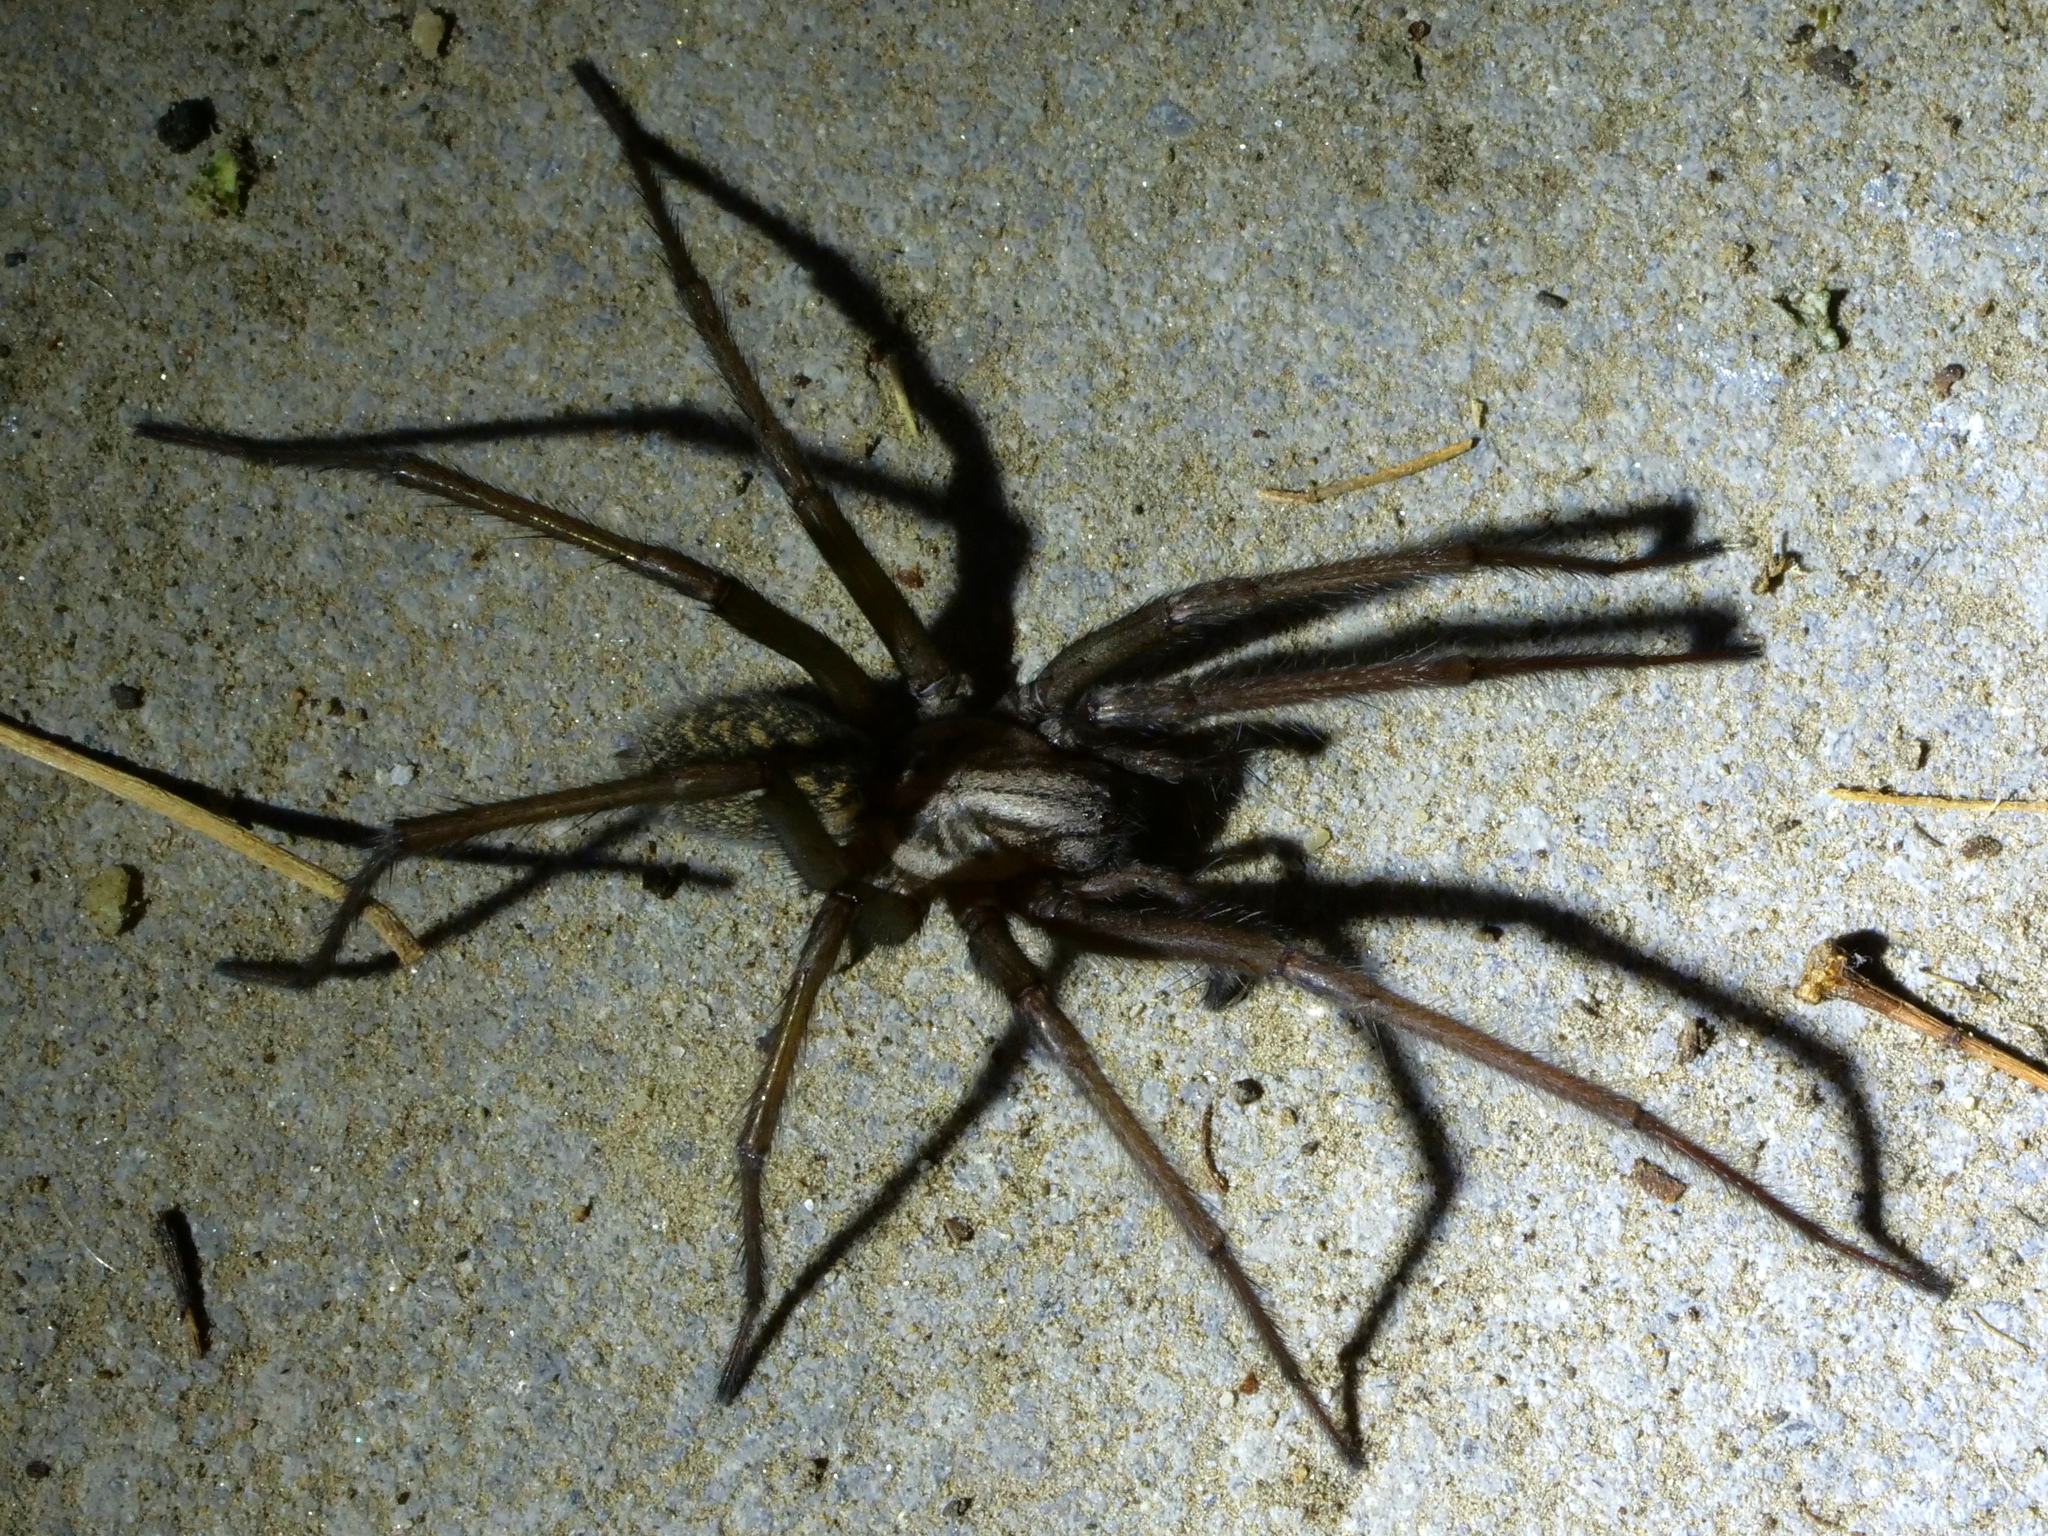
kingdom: Animalia
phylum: Arthropoda
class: Arachnida
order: Araneae
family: Agelenidae
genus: Eratigena
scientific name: Eratigena atrica
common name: Giant house spider
